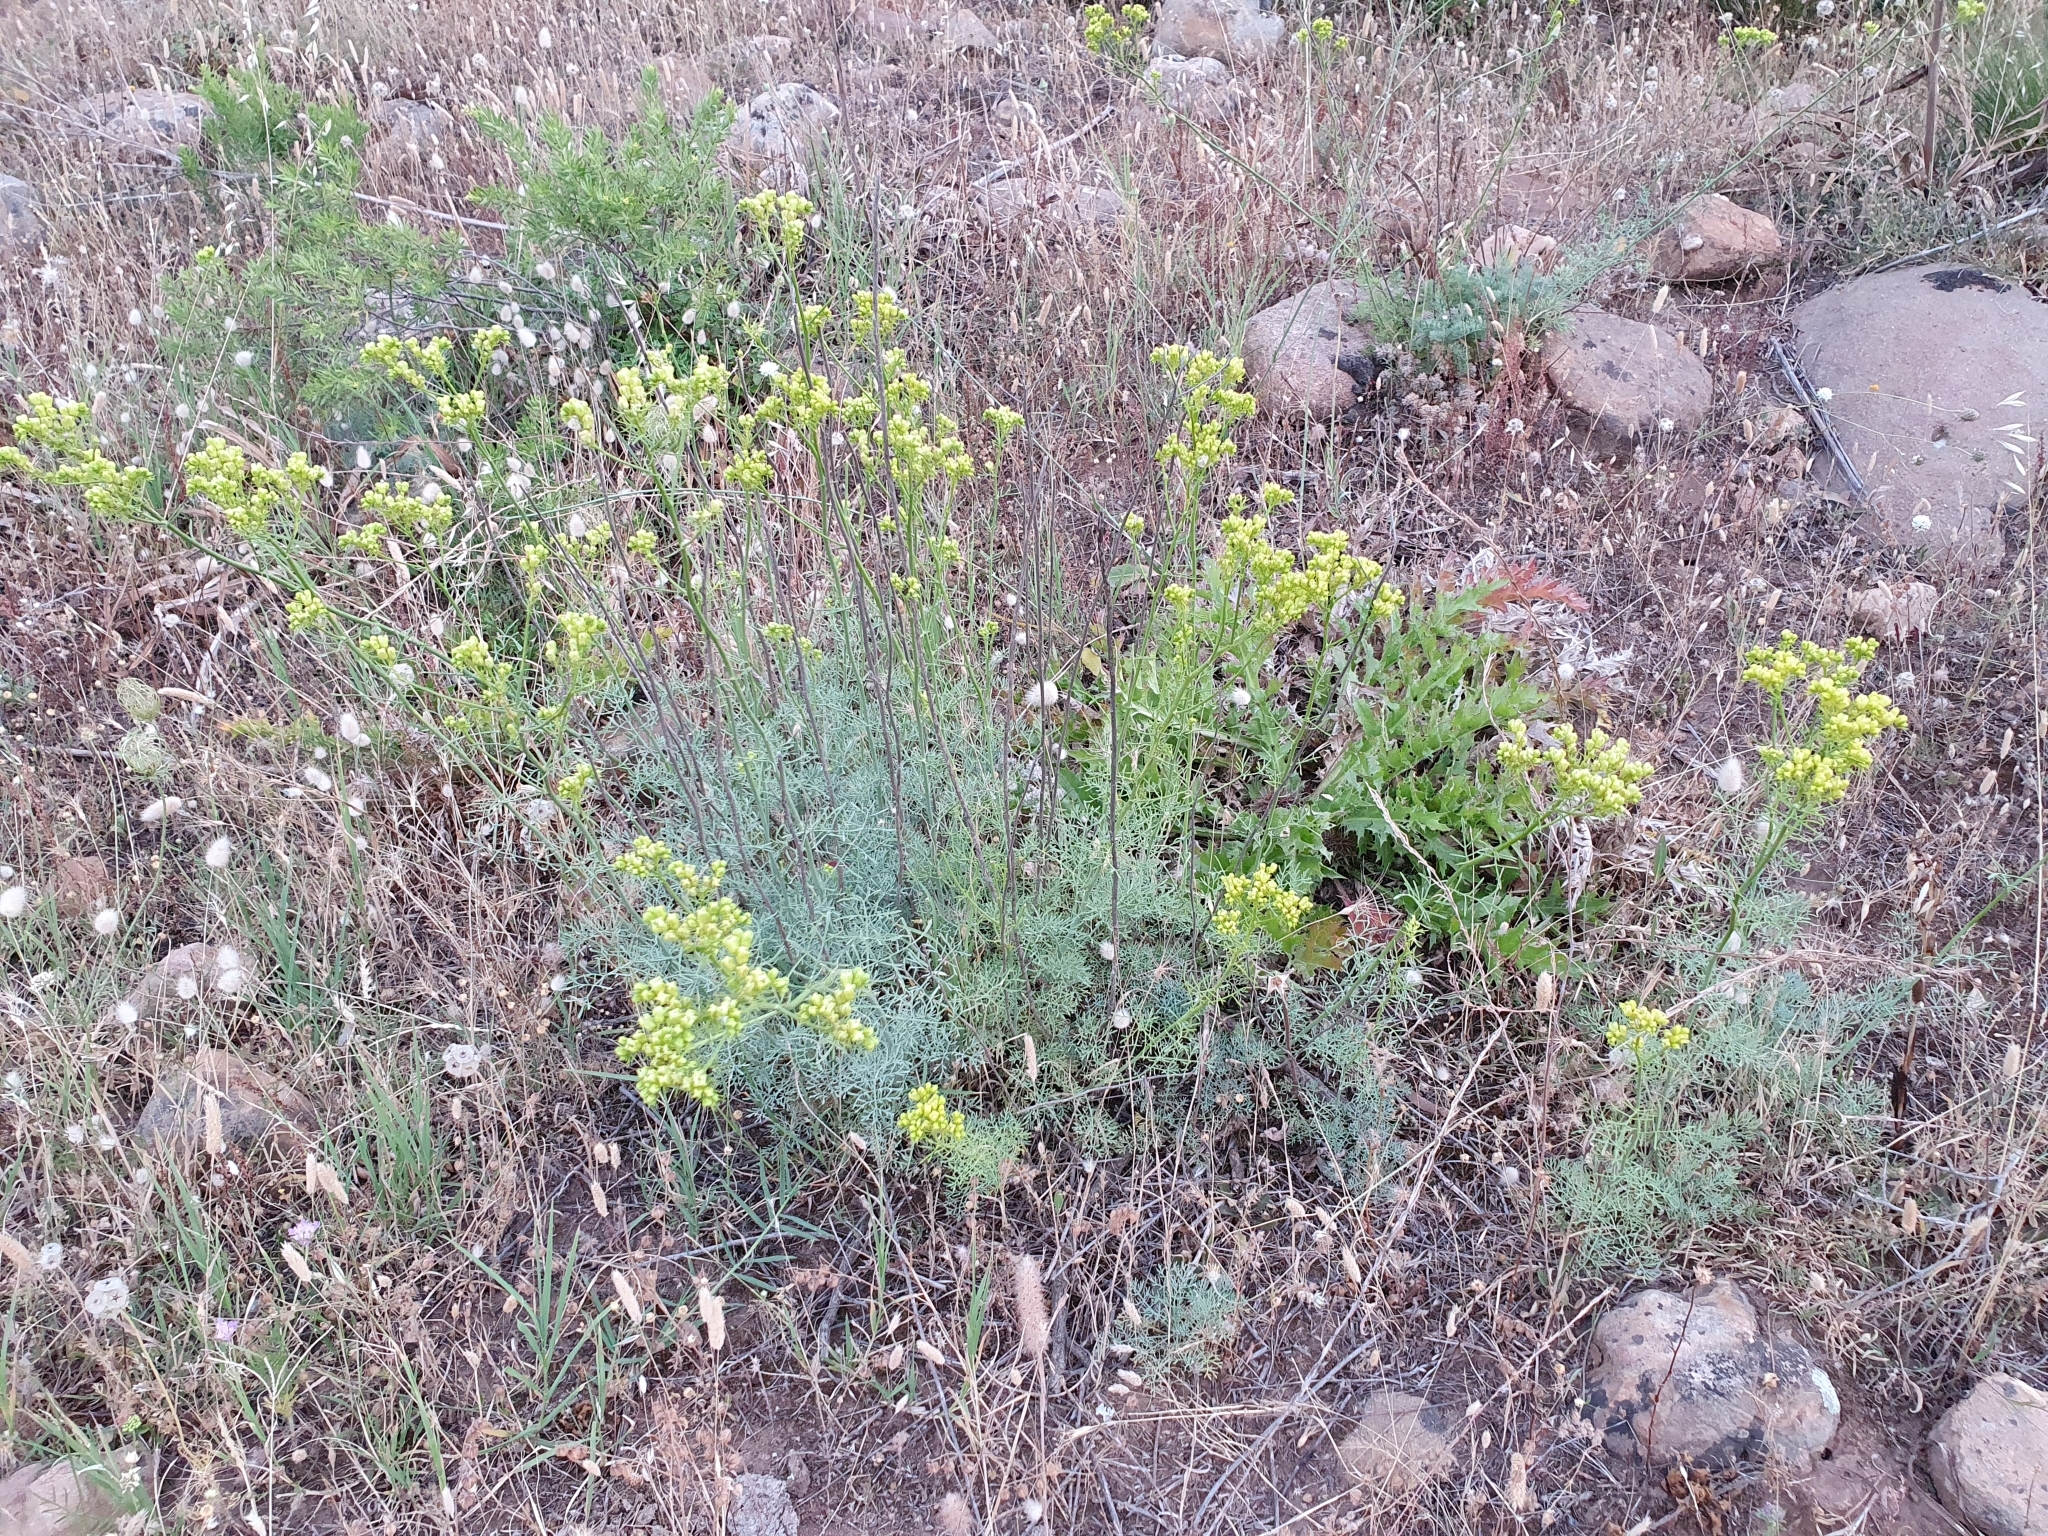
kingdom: Plantae
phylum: Tracheophyta
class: Magnoliopsida
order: Sapindales
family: Rutaceae
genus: Ruta
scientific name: Ruta montana
